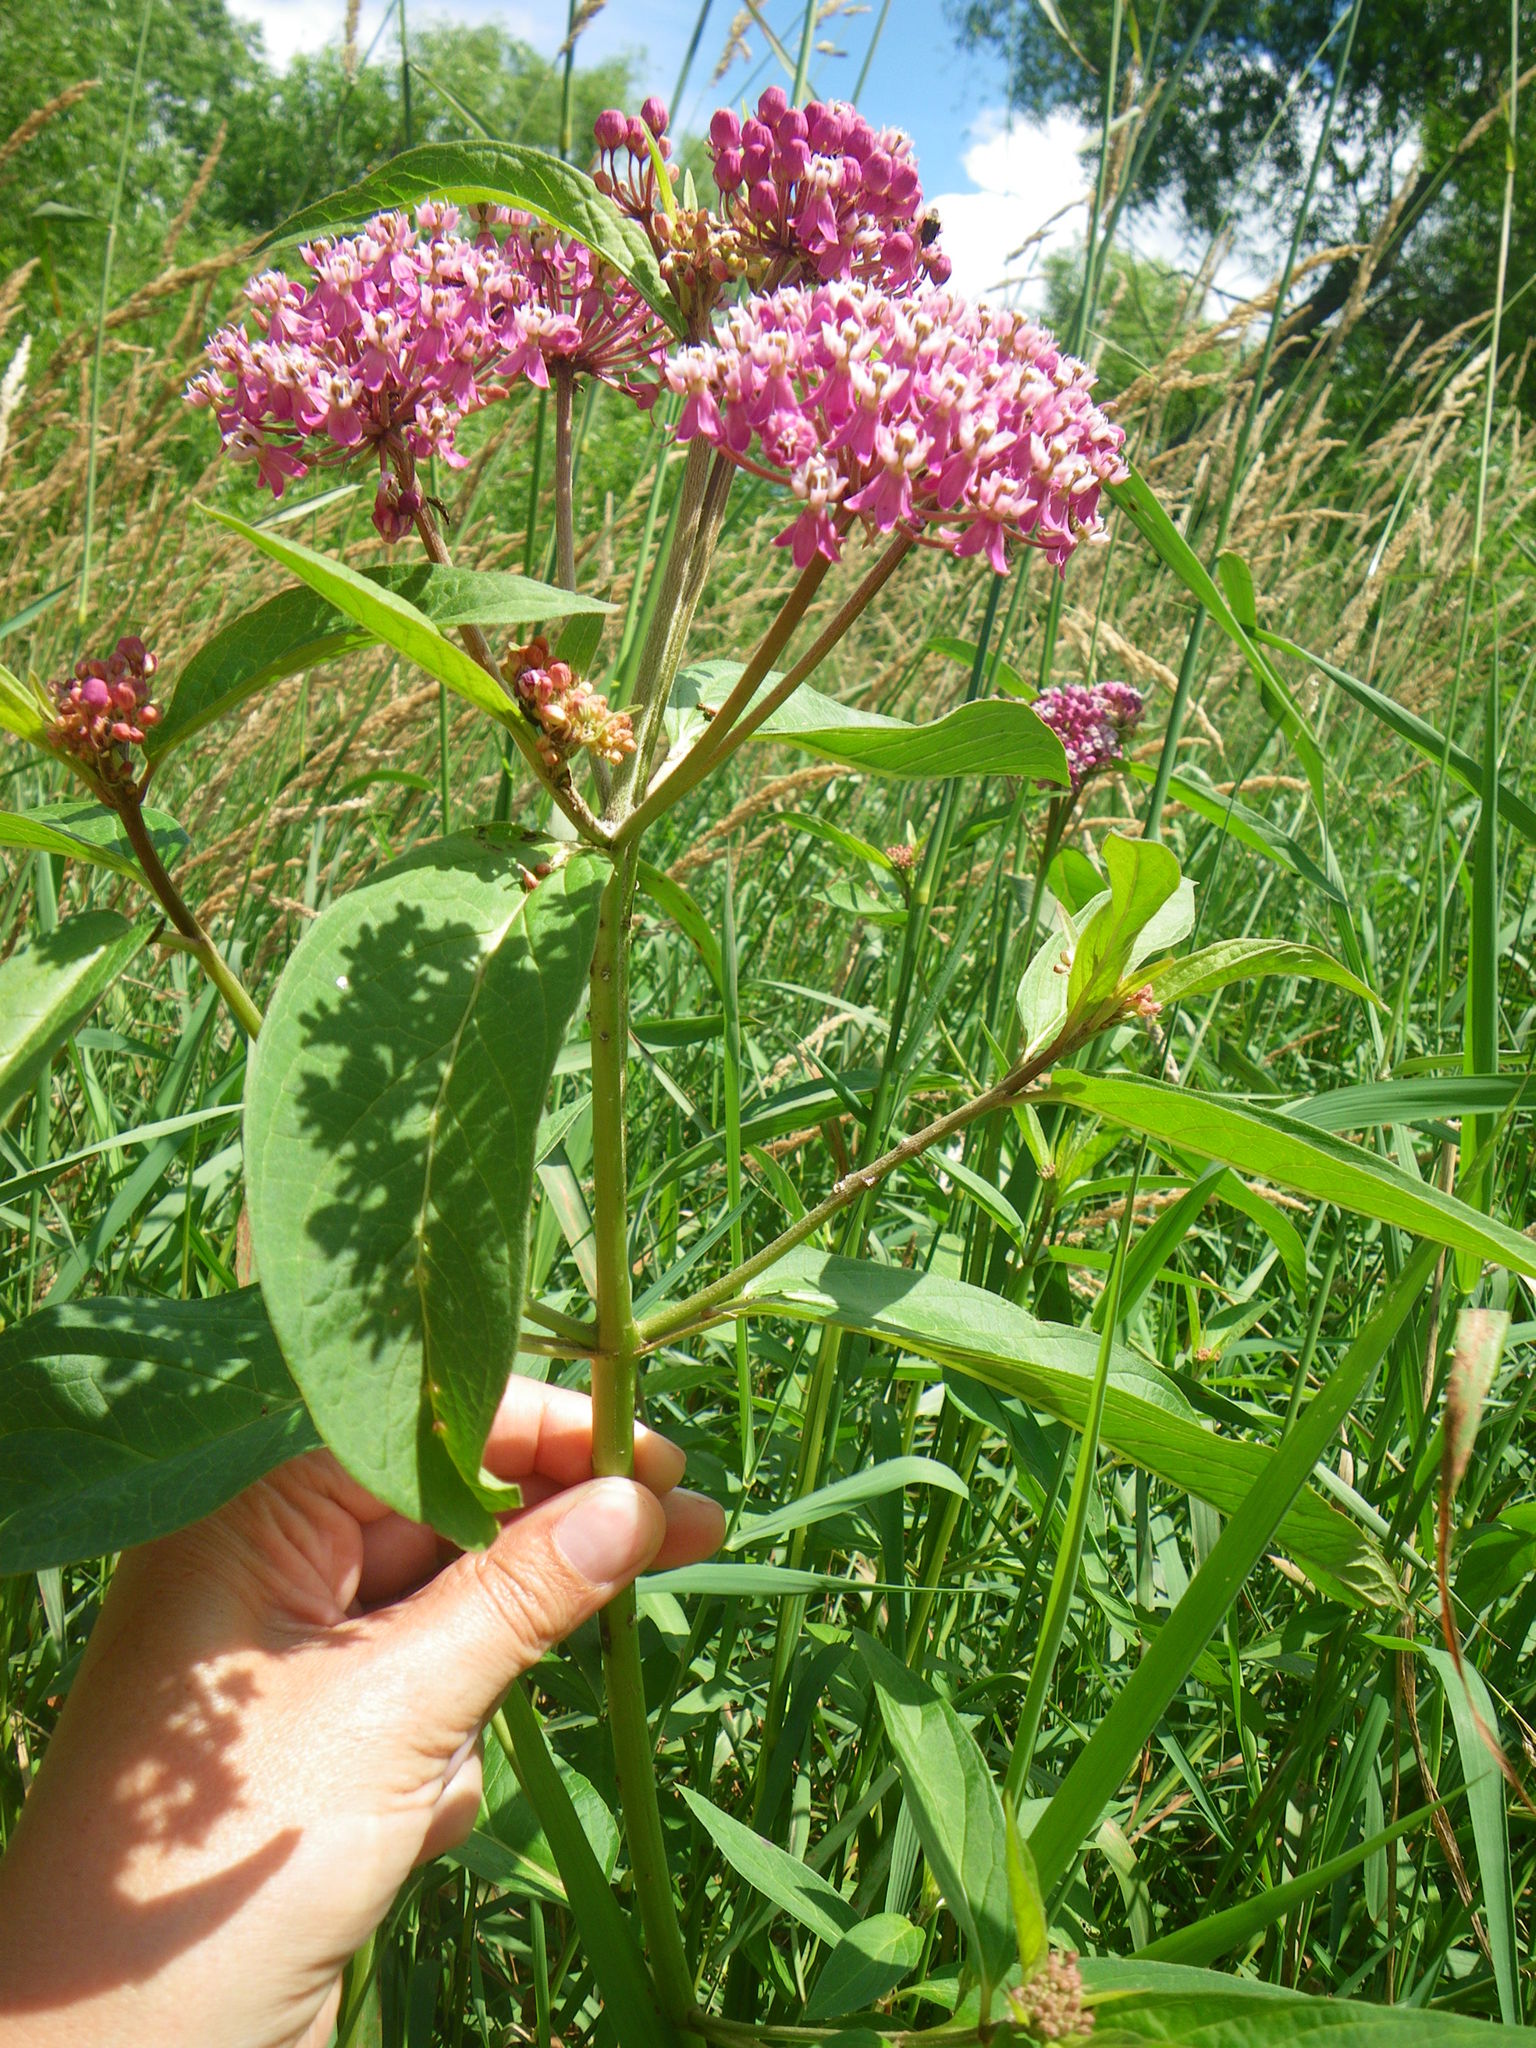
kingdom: Plantae
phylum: Tracheophyta
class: Magnoliopsida
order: Gentianales
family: Apocynaceae
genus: Asclepias
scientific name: Asclepias incarnata
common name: Swamp milkweed
